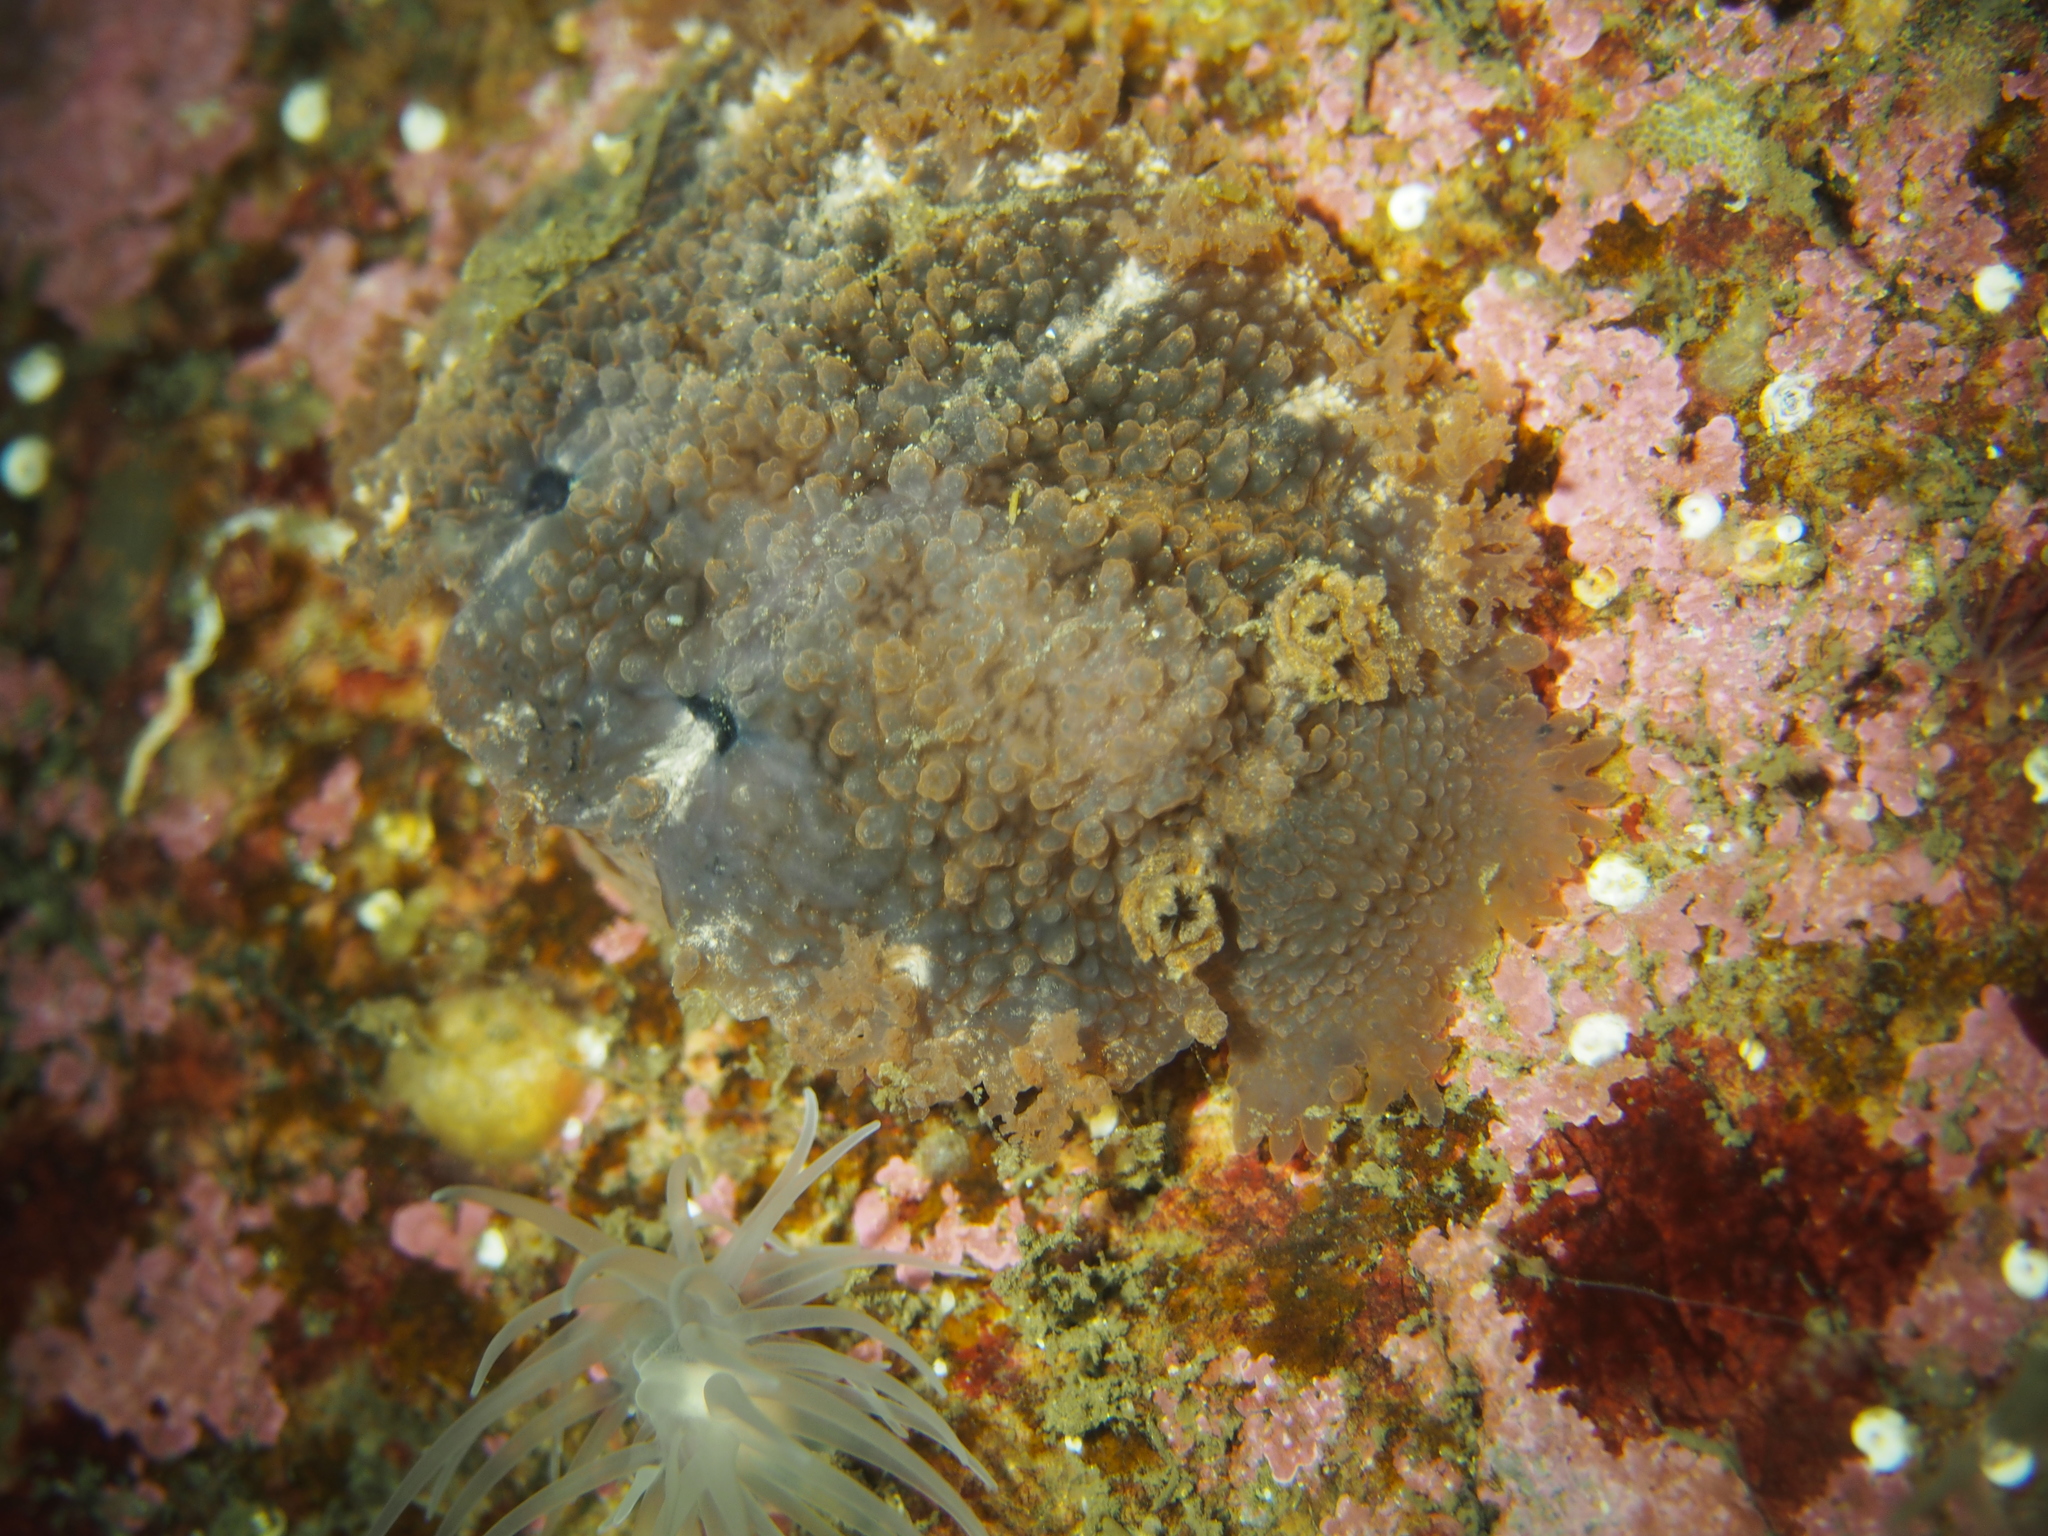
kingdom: Animalia
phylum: Mollusca
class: Gastropoda
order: Nudibranchia
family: Tritoniidae
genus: Tritonia
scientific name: Tritonia hombergii
